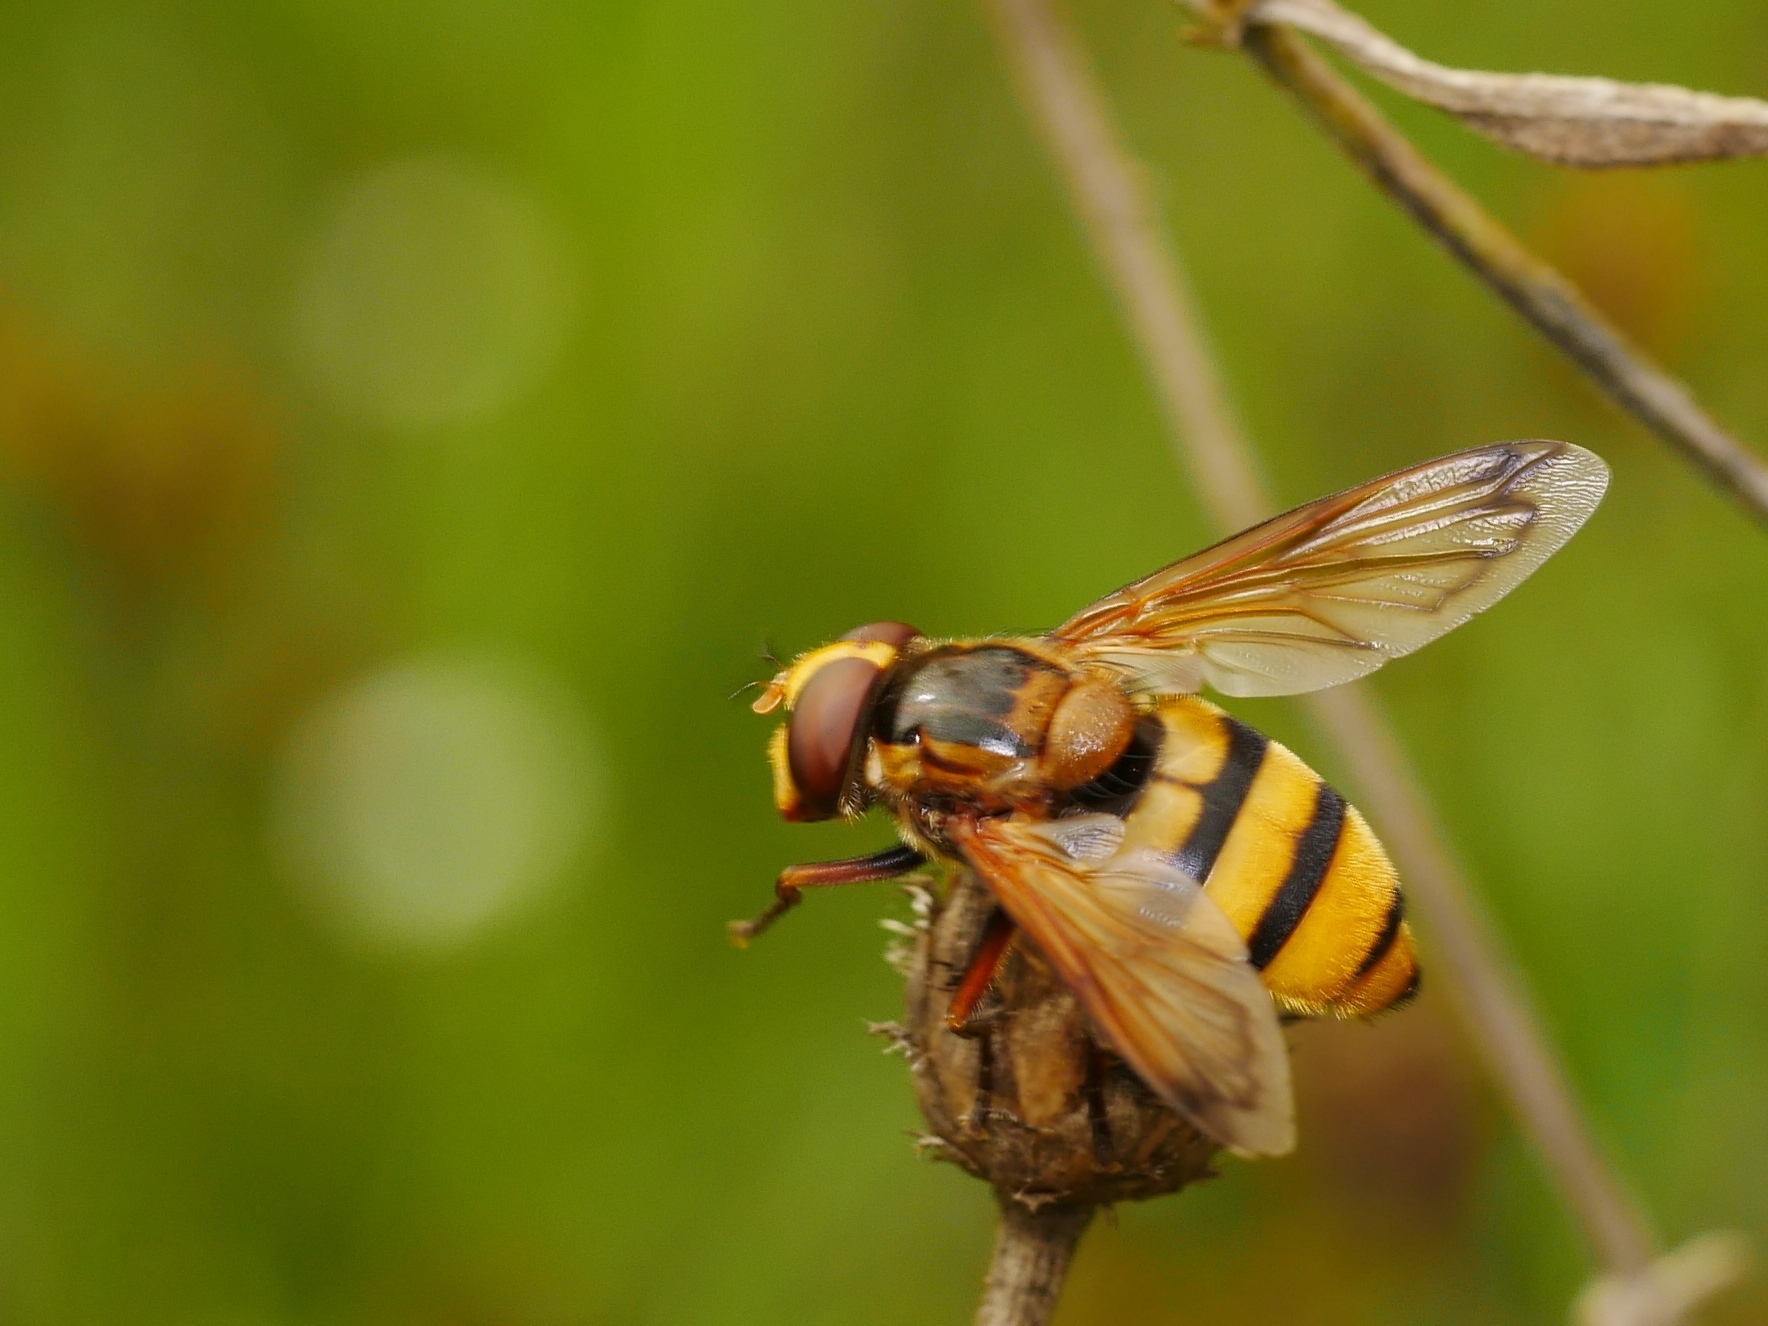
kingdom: Animalia
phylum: Arthropoda
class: Insecta
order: Diptera
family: Syrphidae
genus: Volucella
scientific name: Volucella inanis
